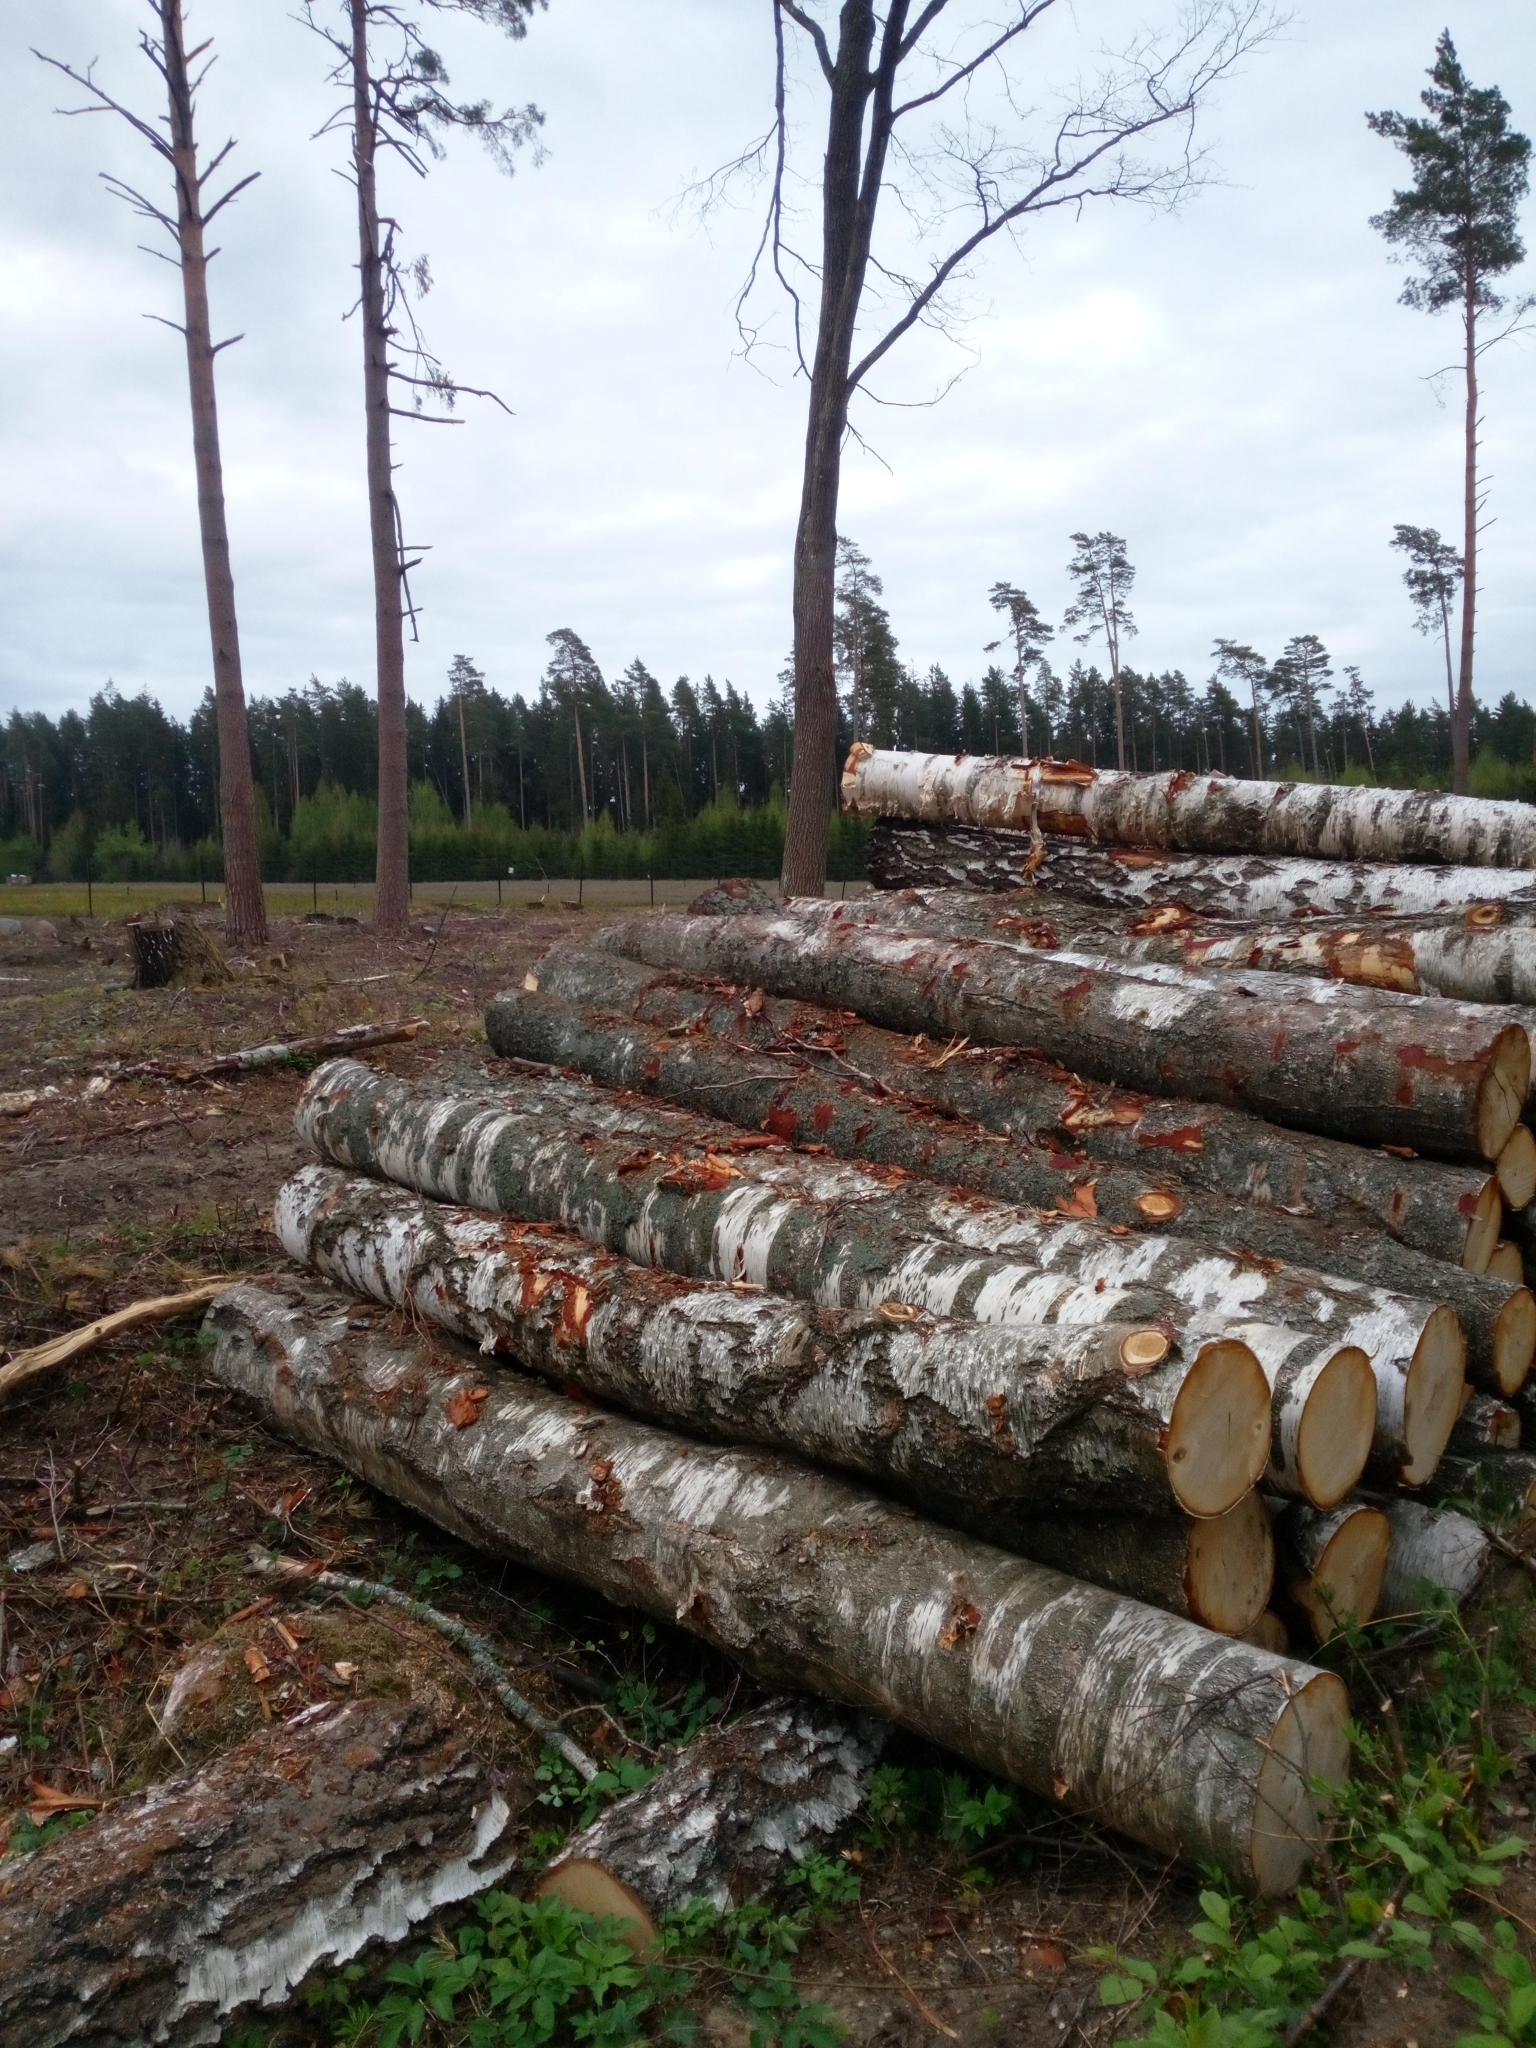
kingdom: Plantae
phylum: Tracheophyta
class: Magnoliopsida
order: Fagales
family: Betulaceae
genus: Betula
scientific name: Betula pendula
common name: Silver birch
